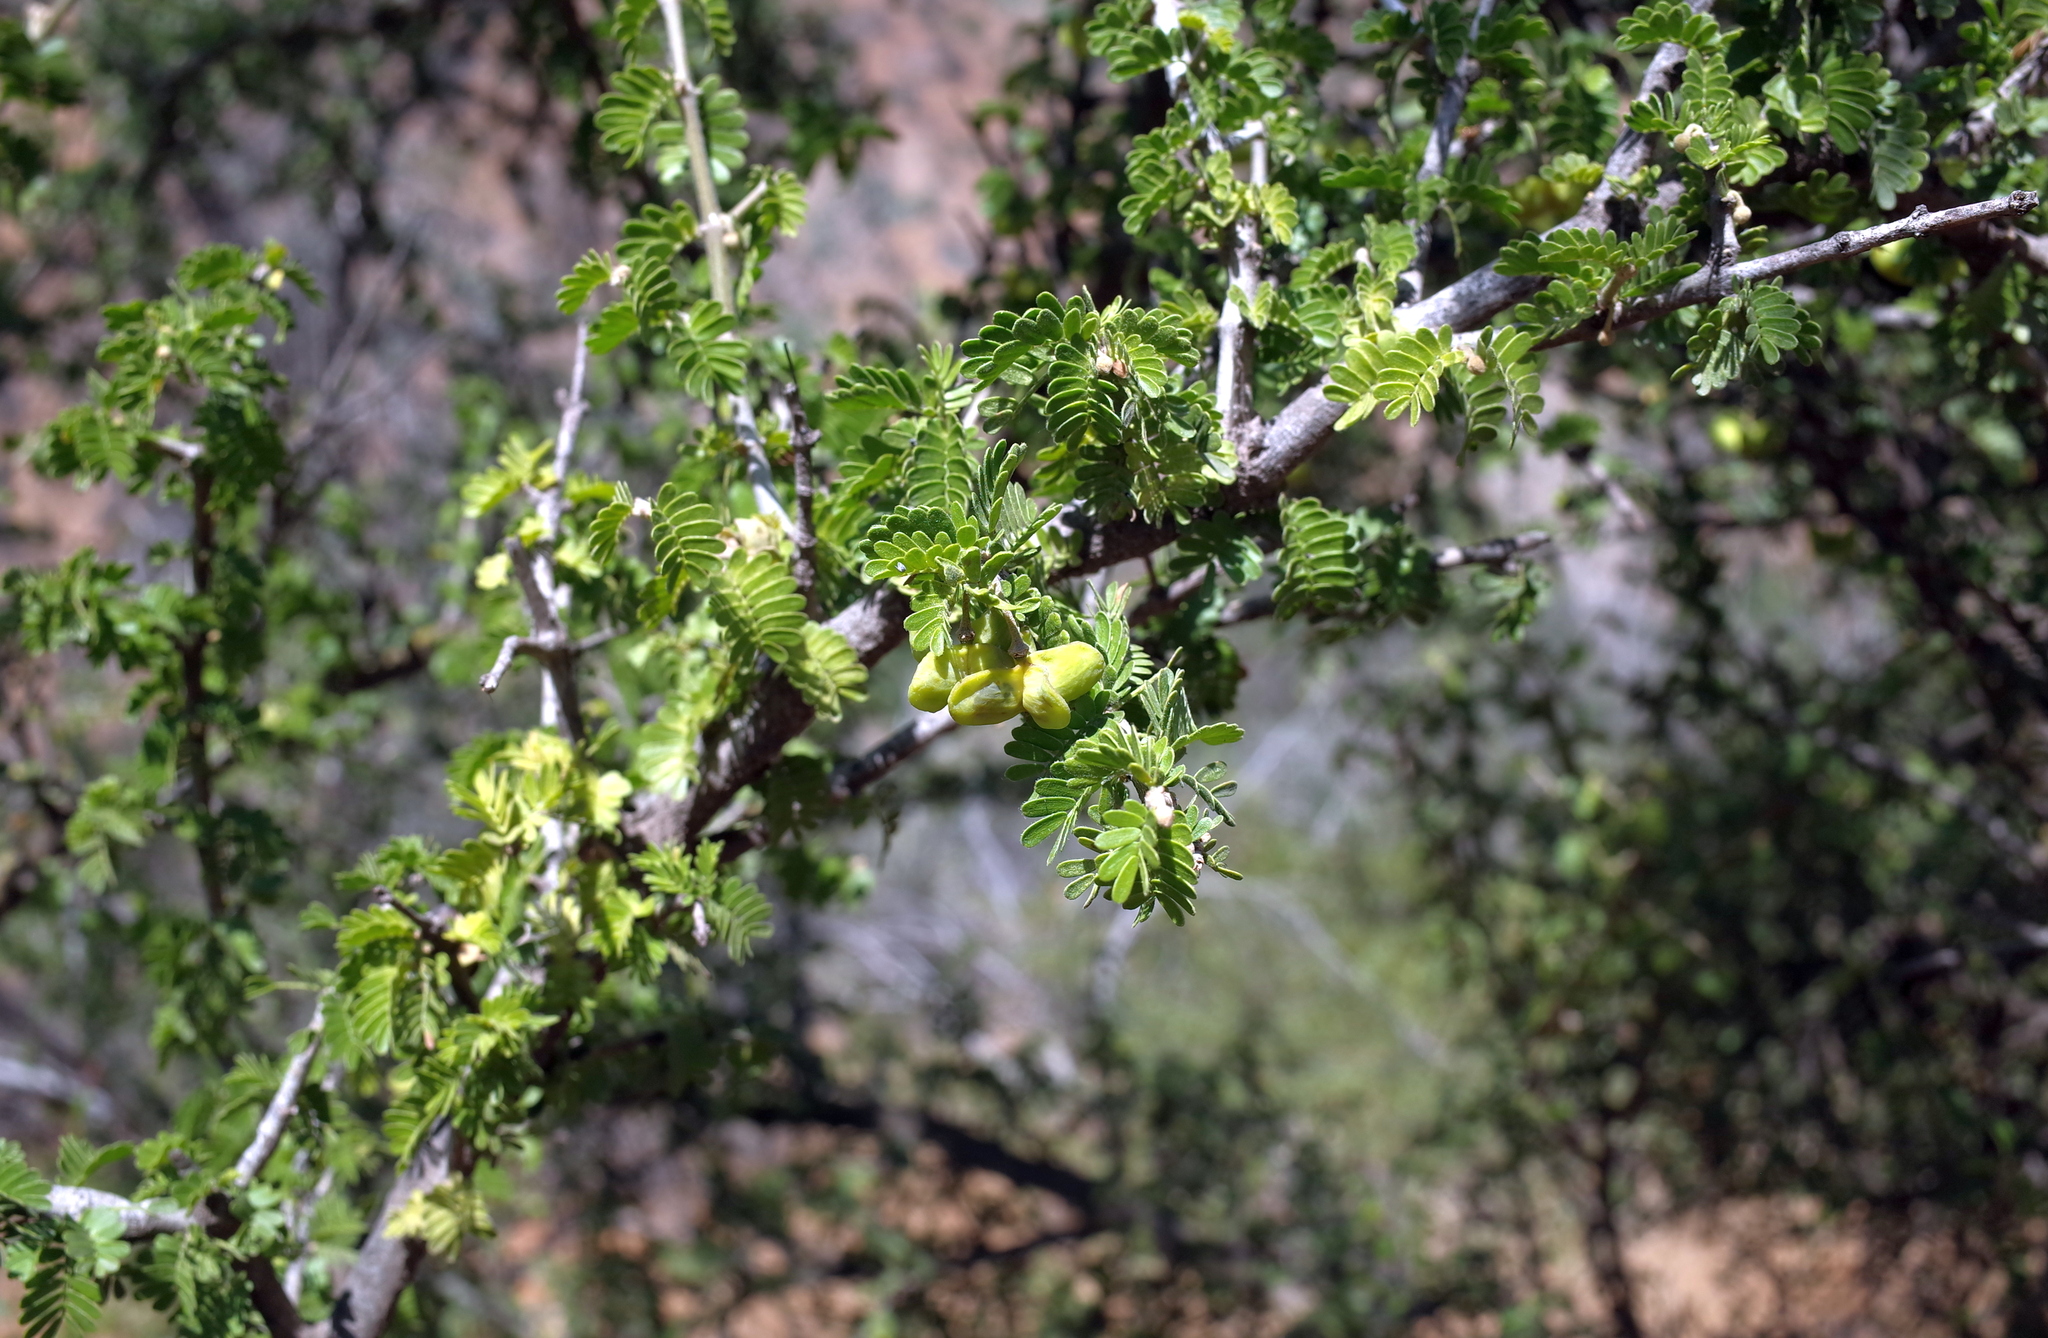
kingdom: Plantae
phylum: Tracheophyta
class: Magnoliopsida
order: Zygophyllales
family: Zygophyllaceae
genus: Porlieria
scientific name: Porlieria chilensis
